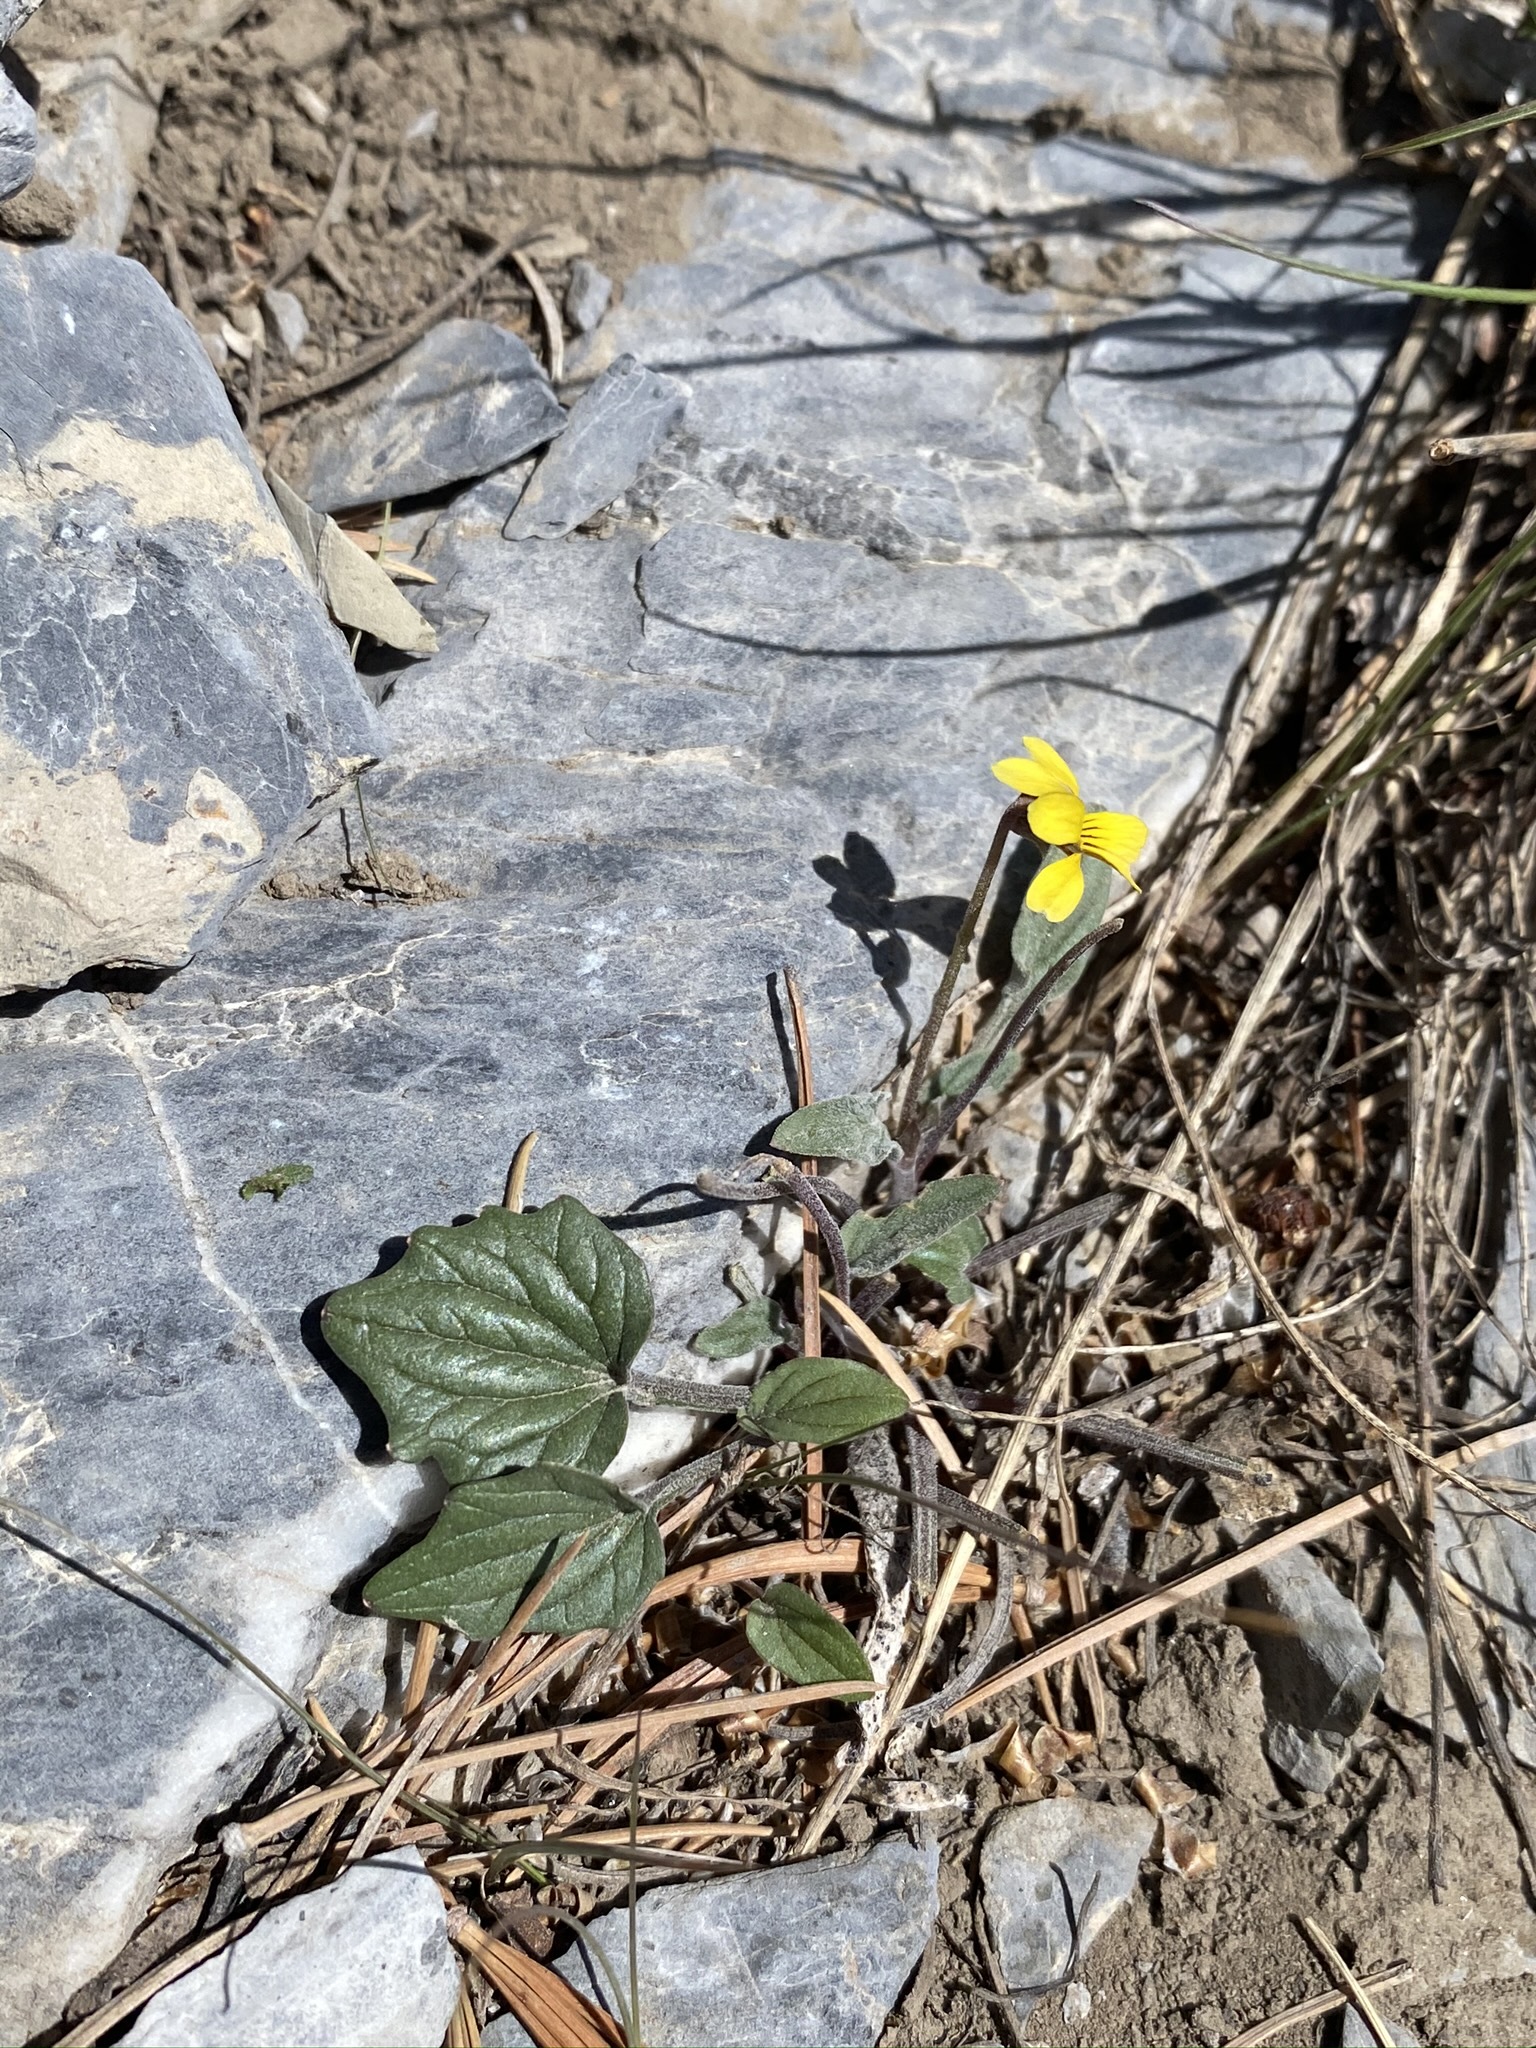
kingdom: Plantae
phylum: Tracheophyta
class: Magnoliopsida
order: Malpighiales
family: Violaceae
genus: Viola
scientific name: Viola purpurea
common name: Pine violet
